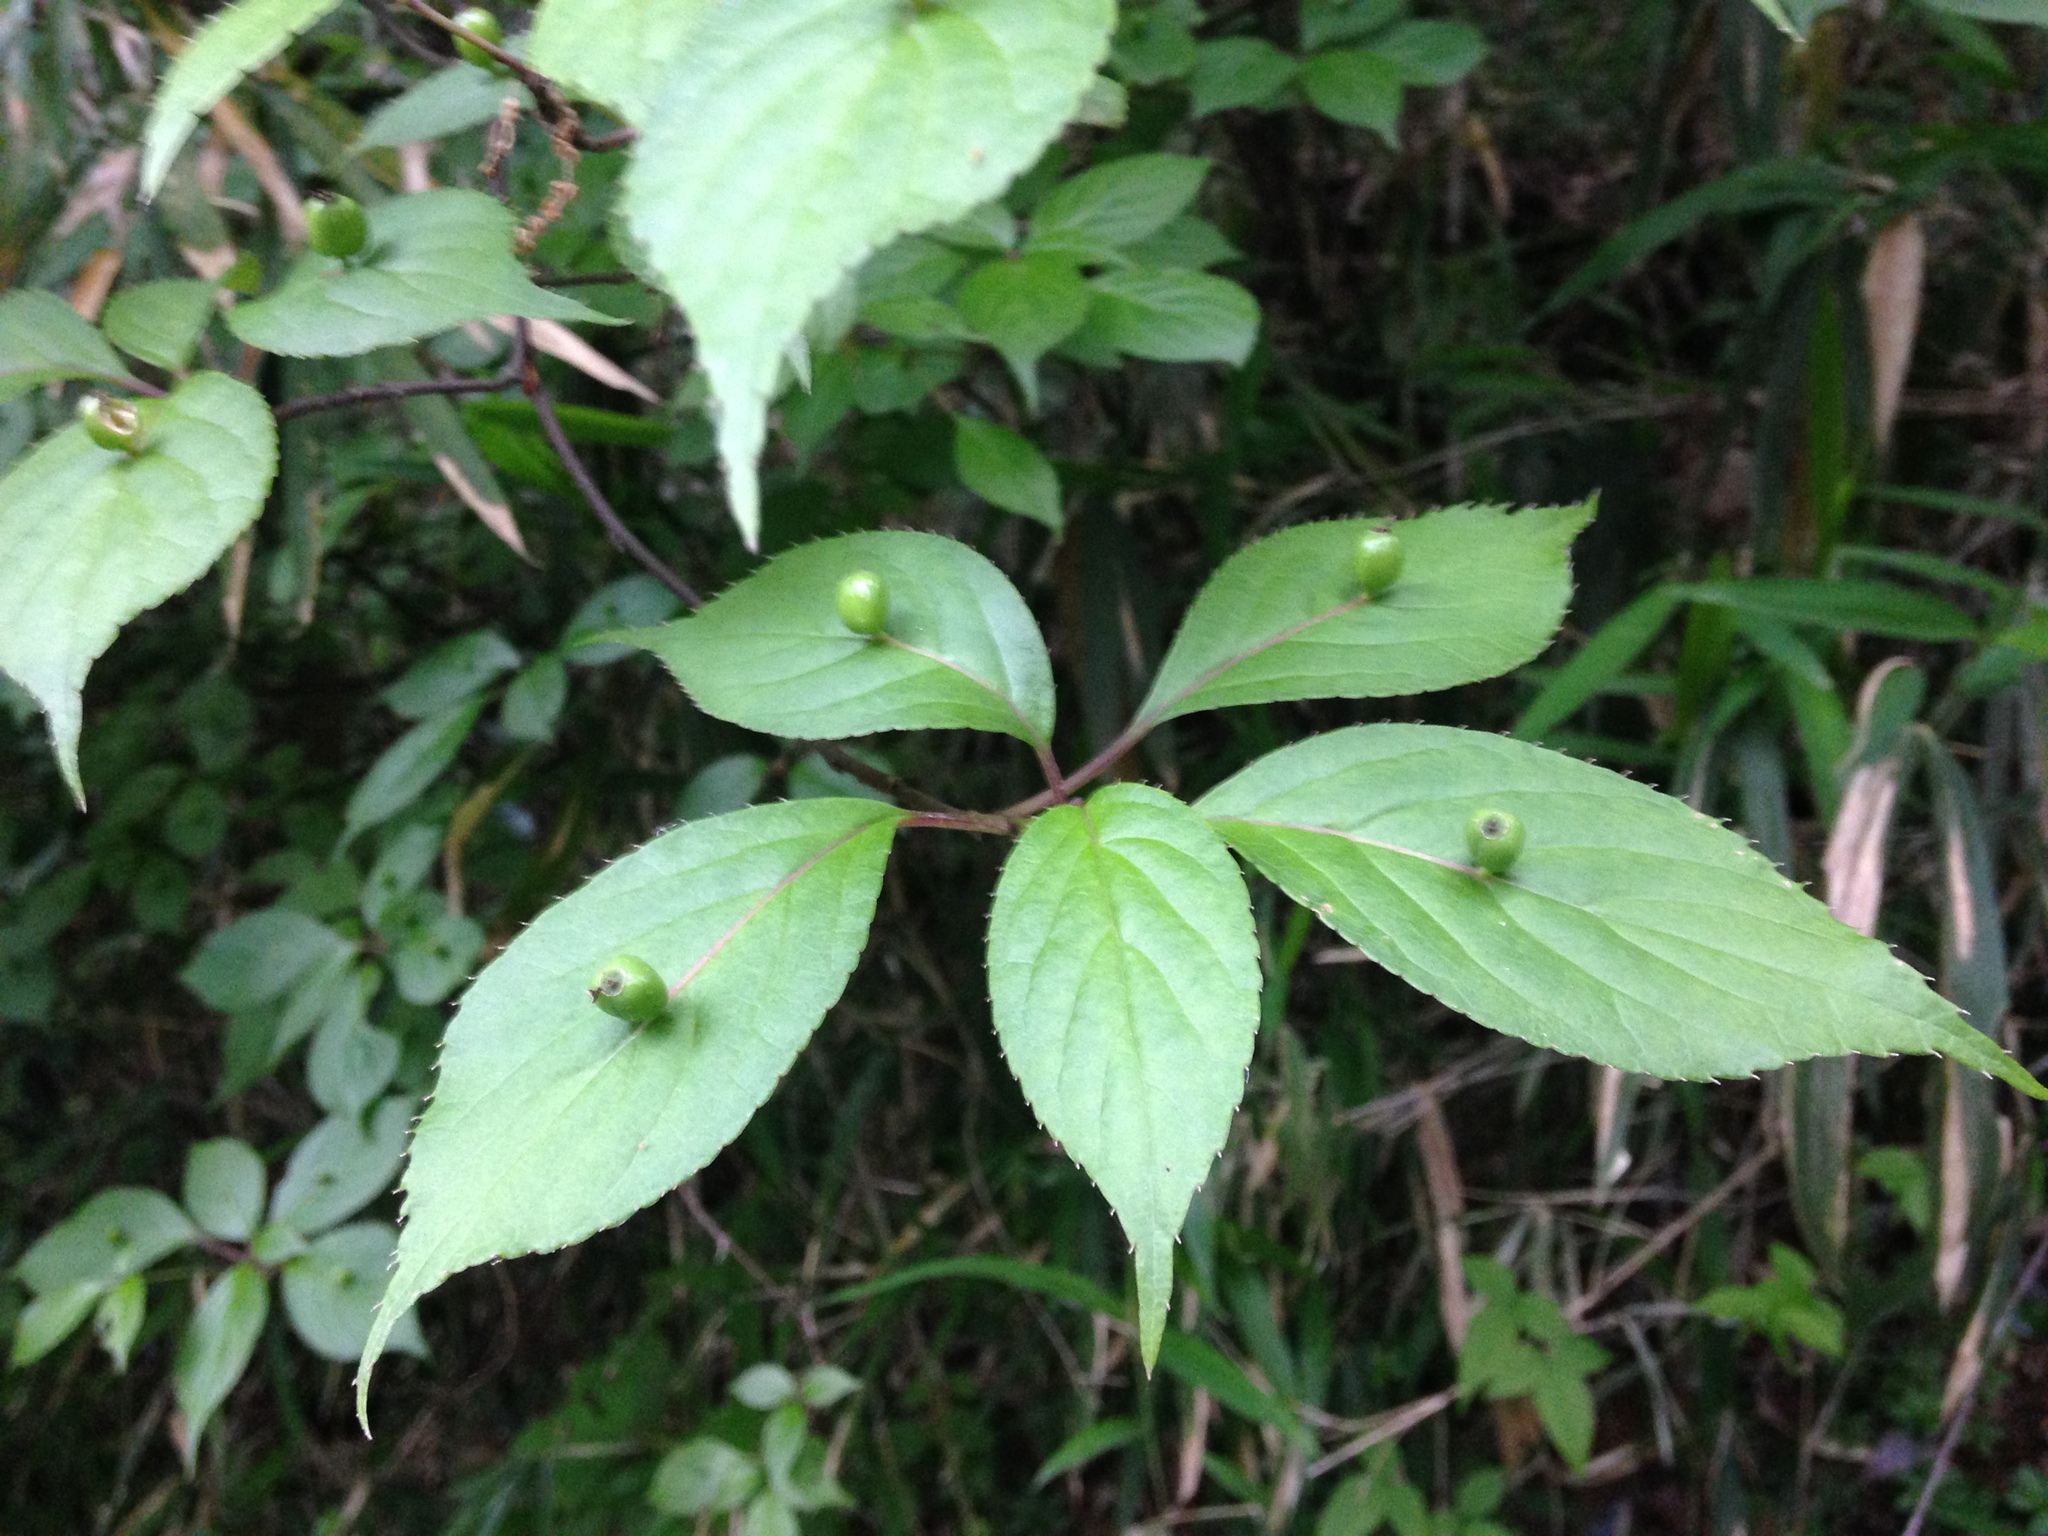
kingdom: Plantae
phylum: Tracheophyta
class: Magnoliopsida
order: Aquifoliales
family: Helwingiaceae
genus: Helwingia
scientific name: Helwingia japonica
